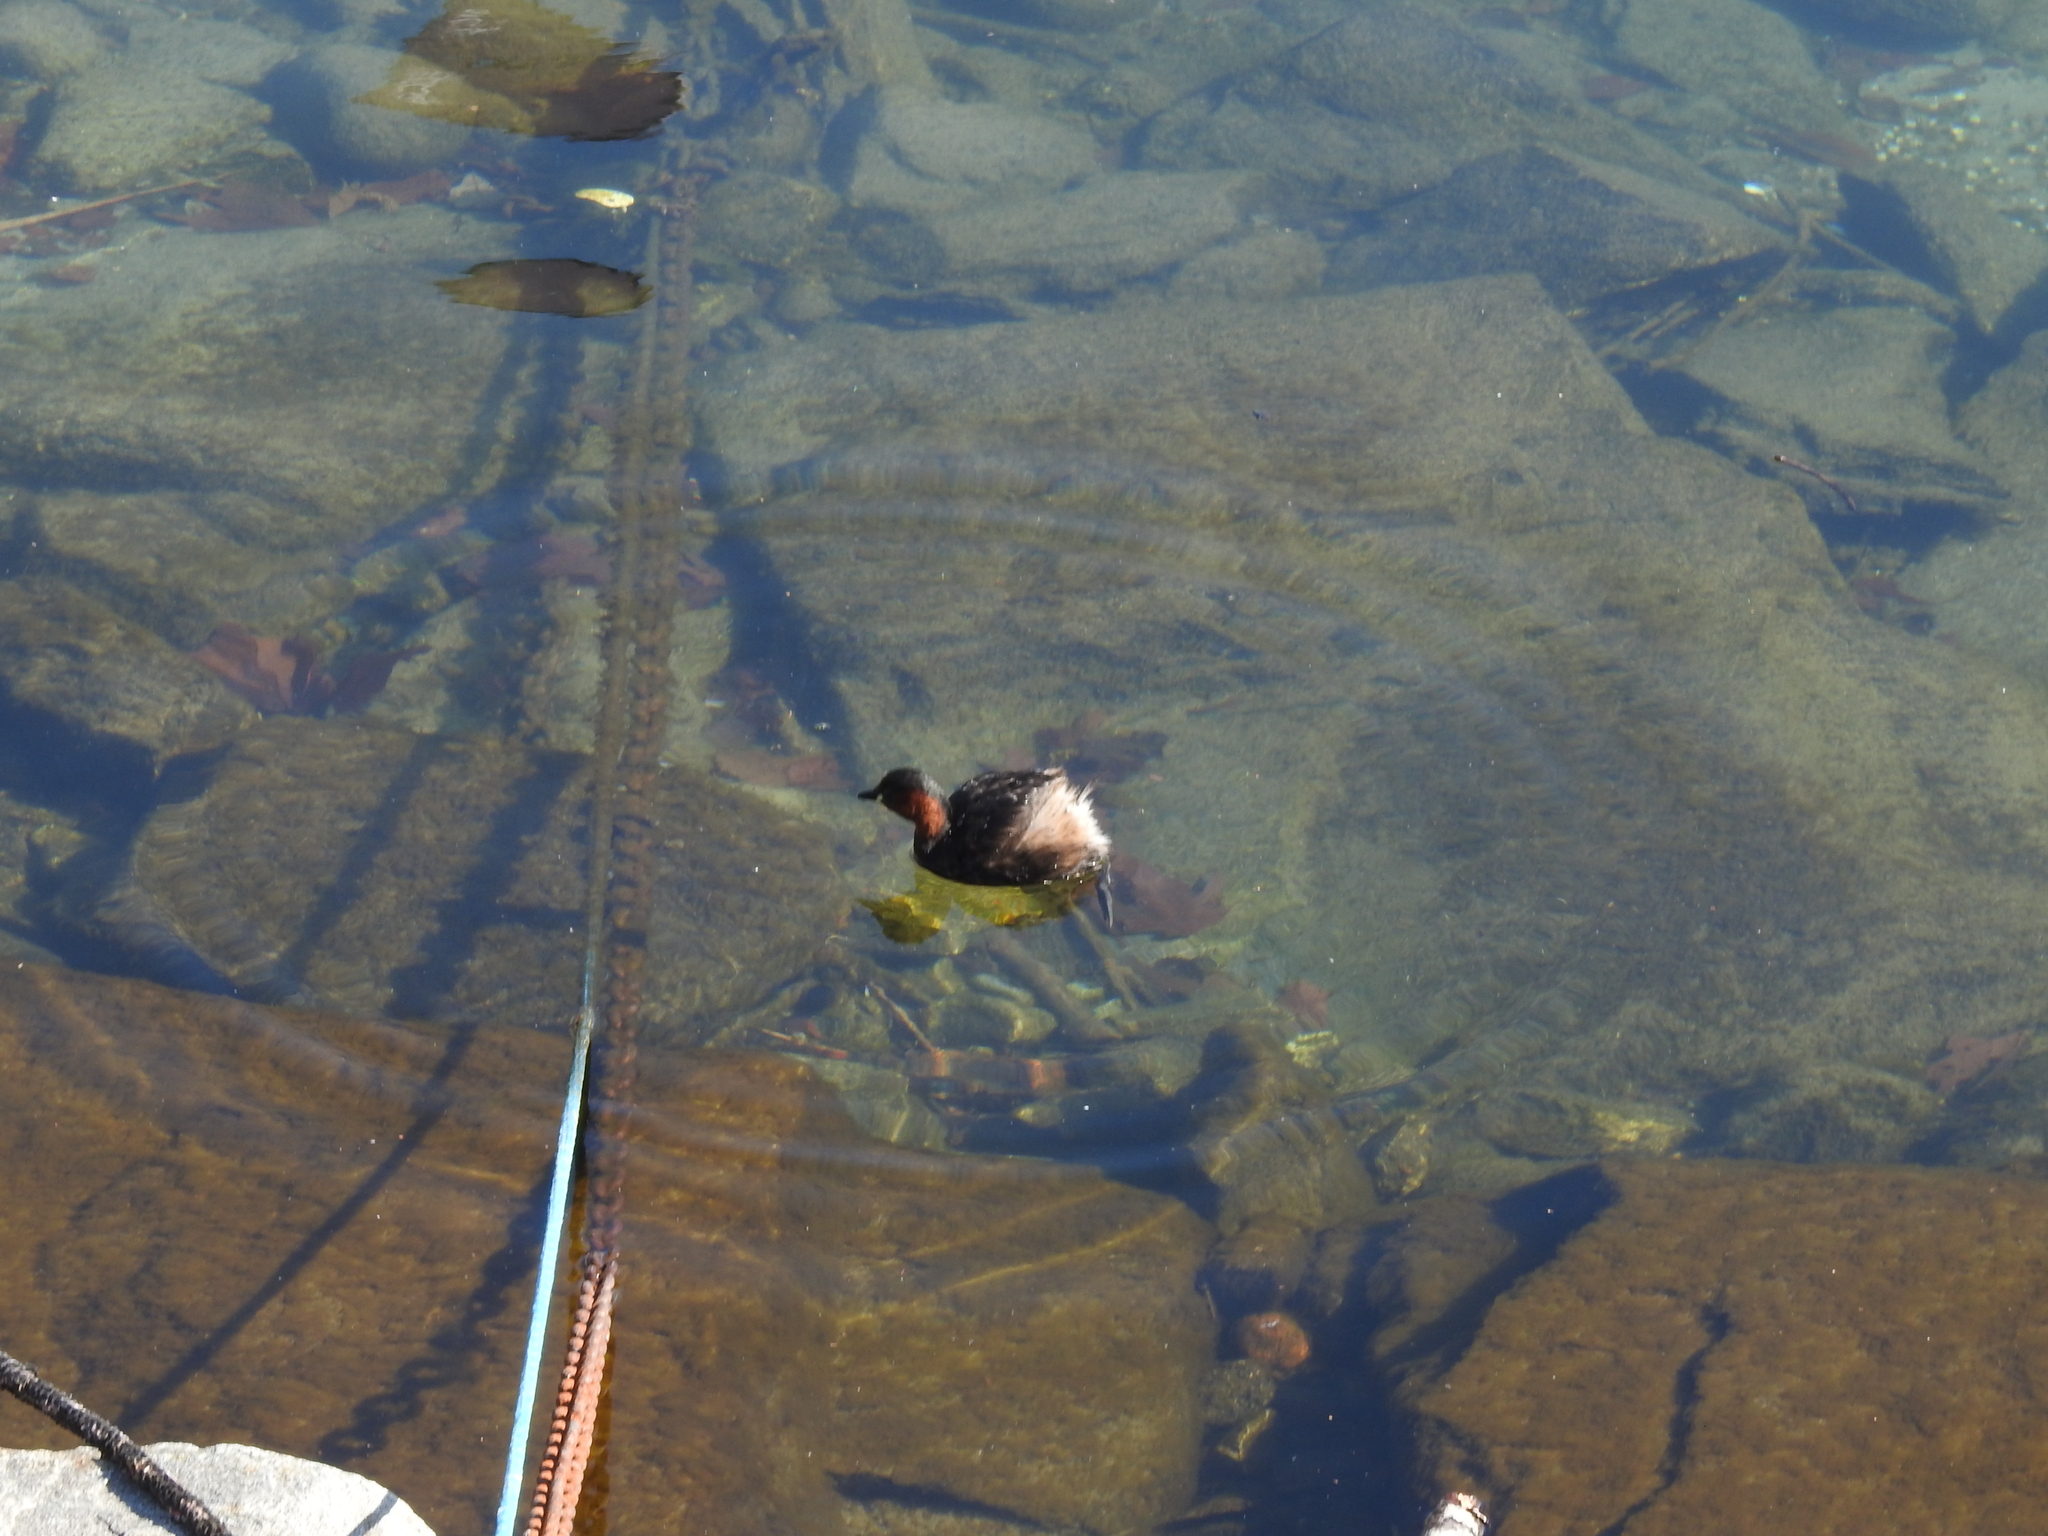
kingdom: Animalia
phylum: Chordata
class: Aves
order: Podicipediformes
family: Podicipedidae
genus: Tachybaptus
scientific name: Tachybaptus ruficollis
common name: Little grebe
